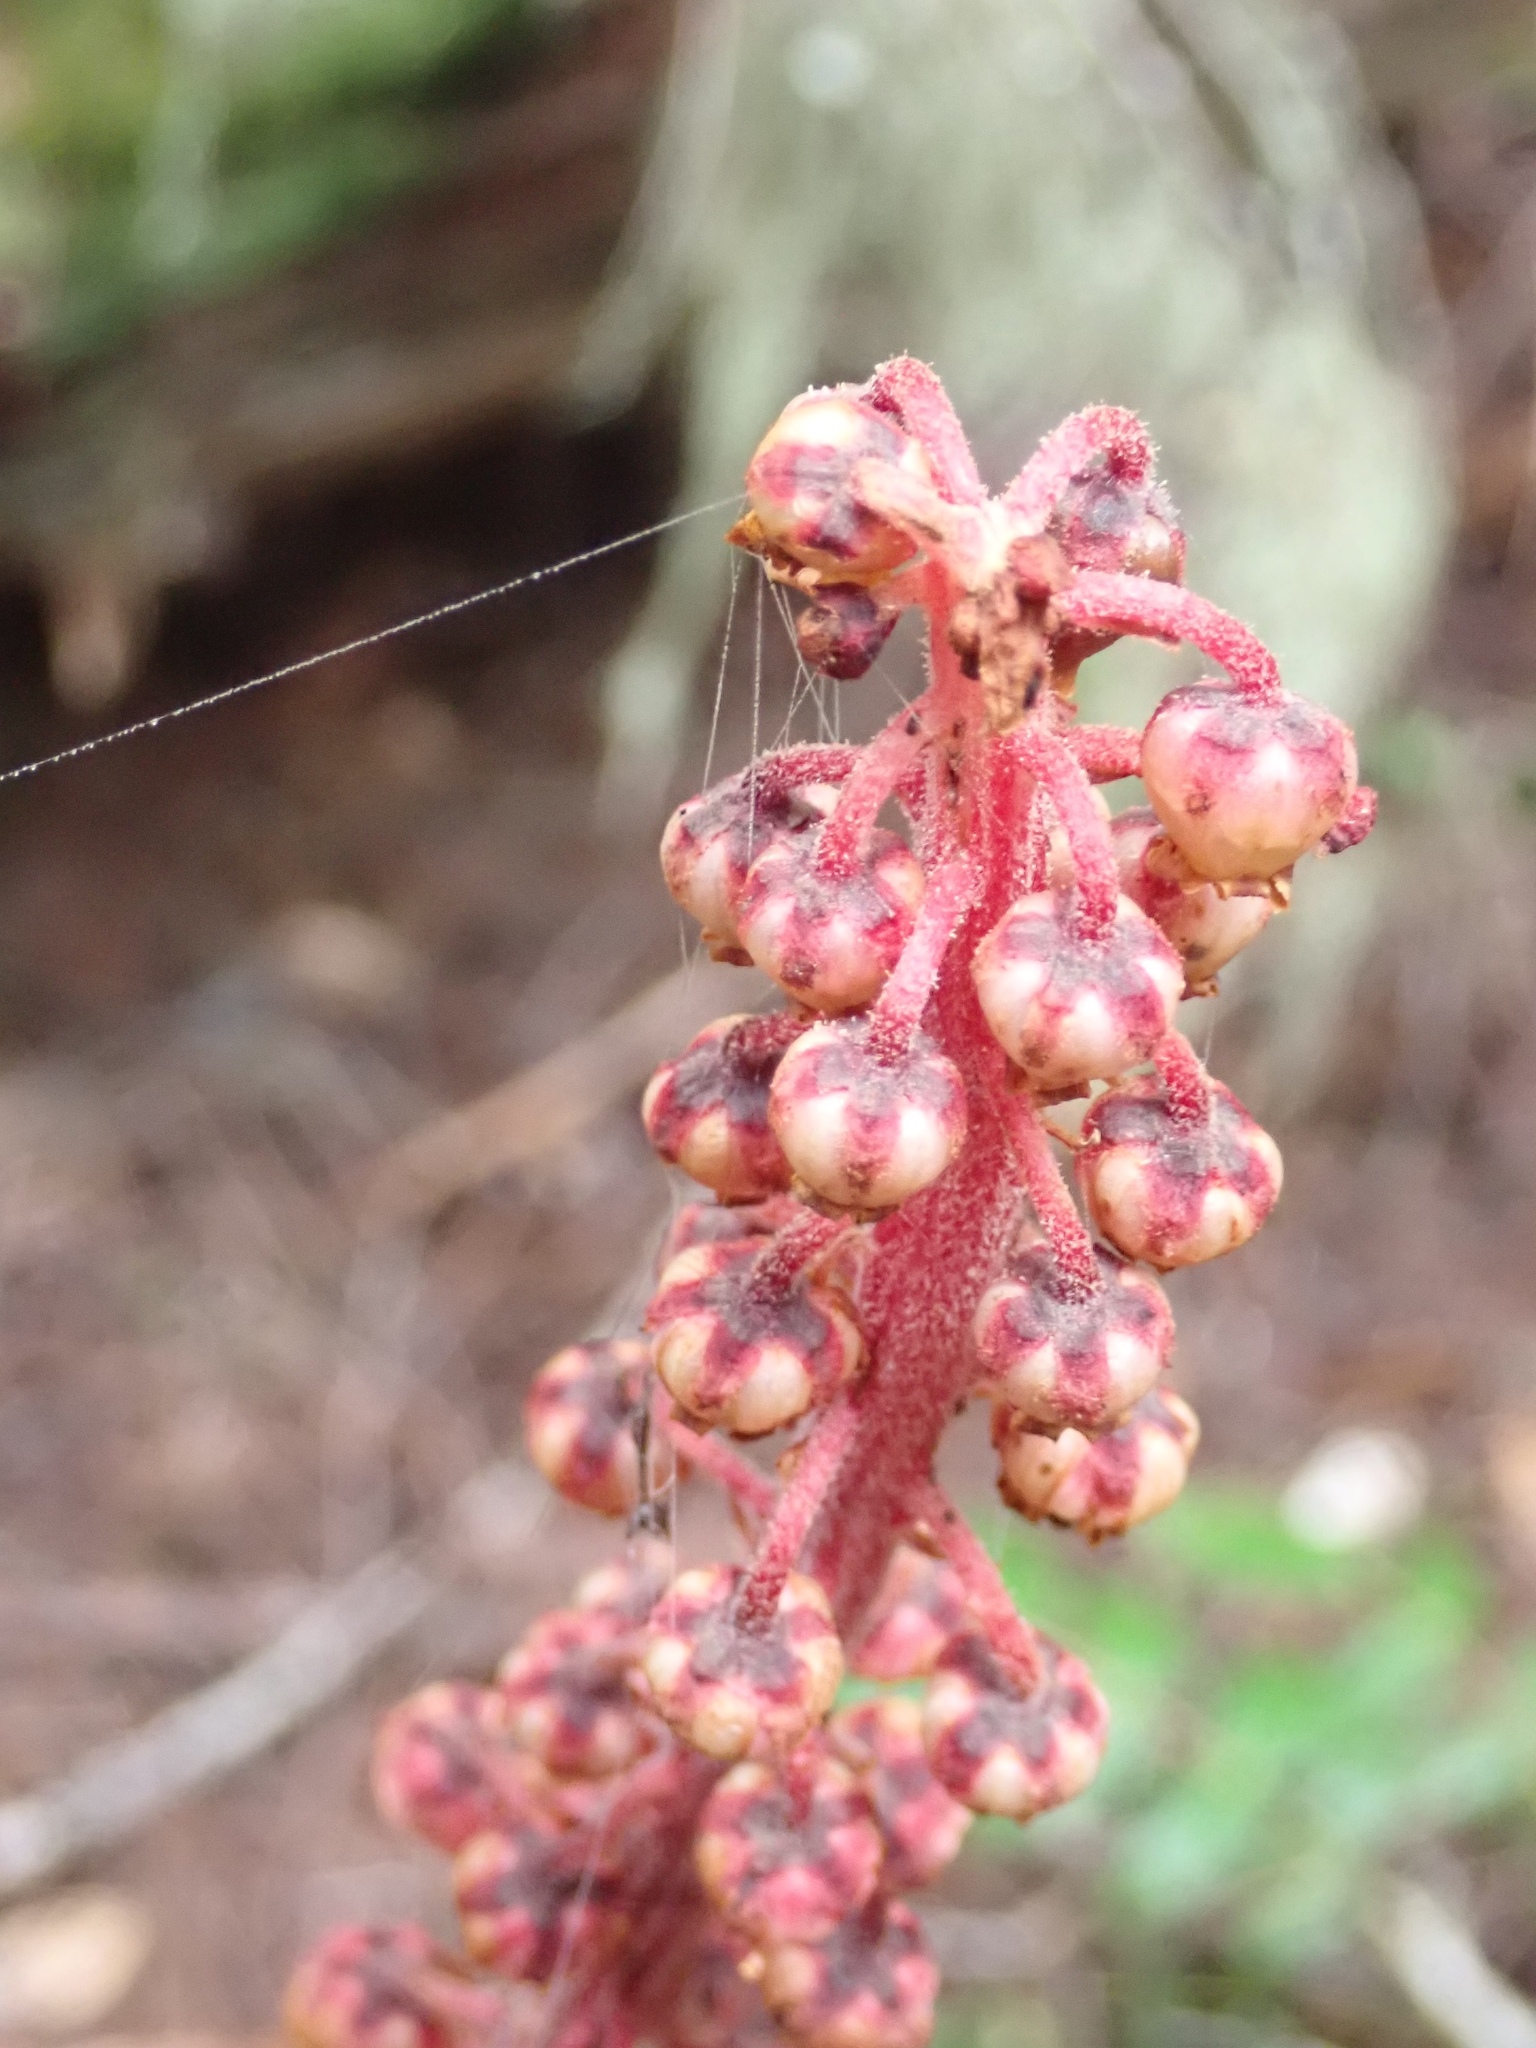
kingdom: Plantae
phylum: Tracheophyta
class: Magnoliopsida
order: Ericales
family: Ericaceae
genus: Pterospora
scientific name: Pterospora andromedea
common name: Giant bird's-nest
